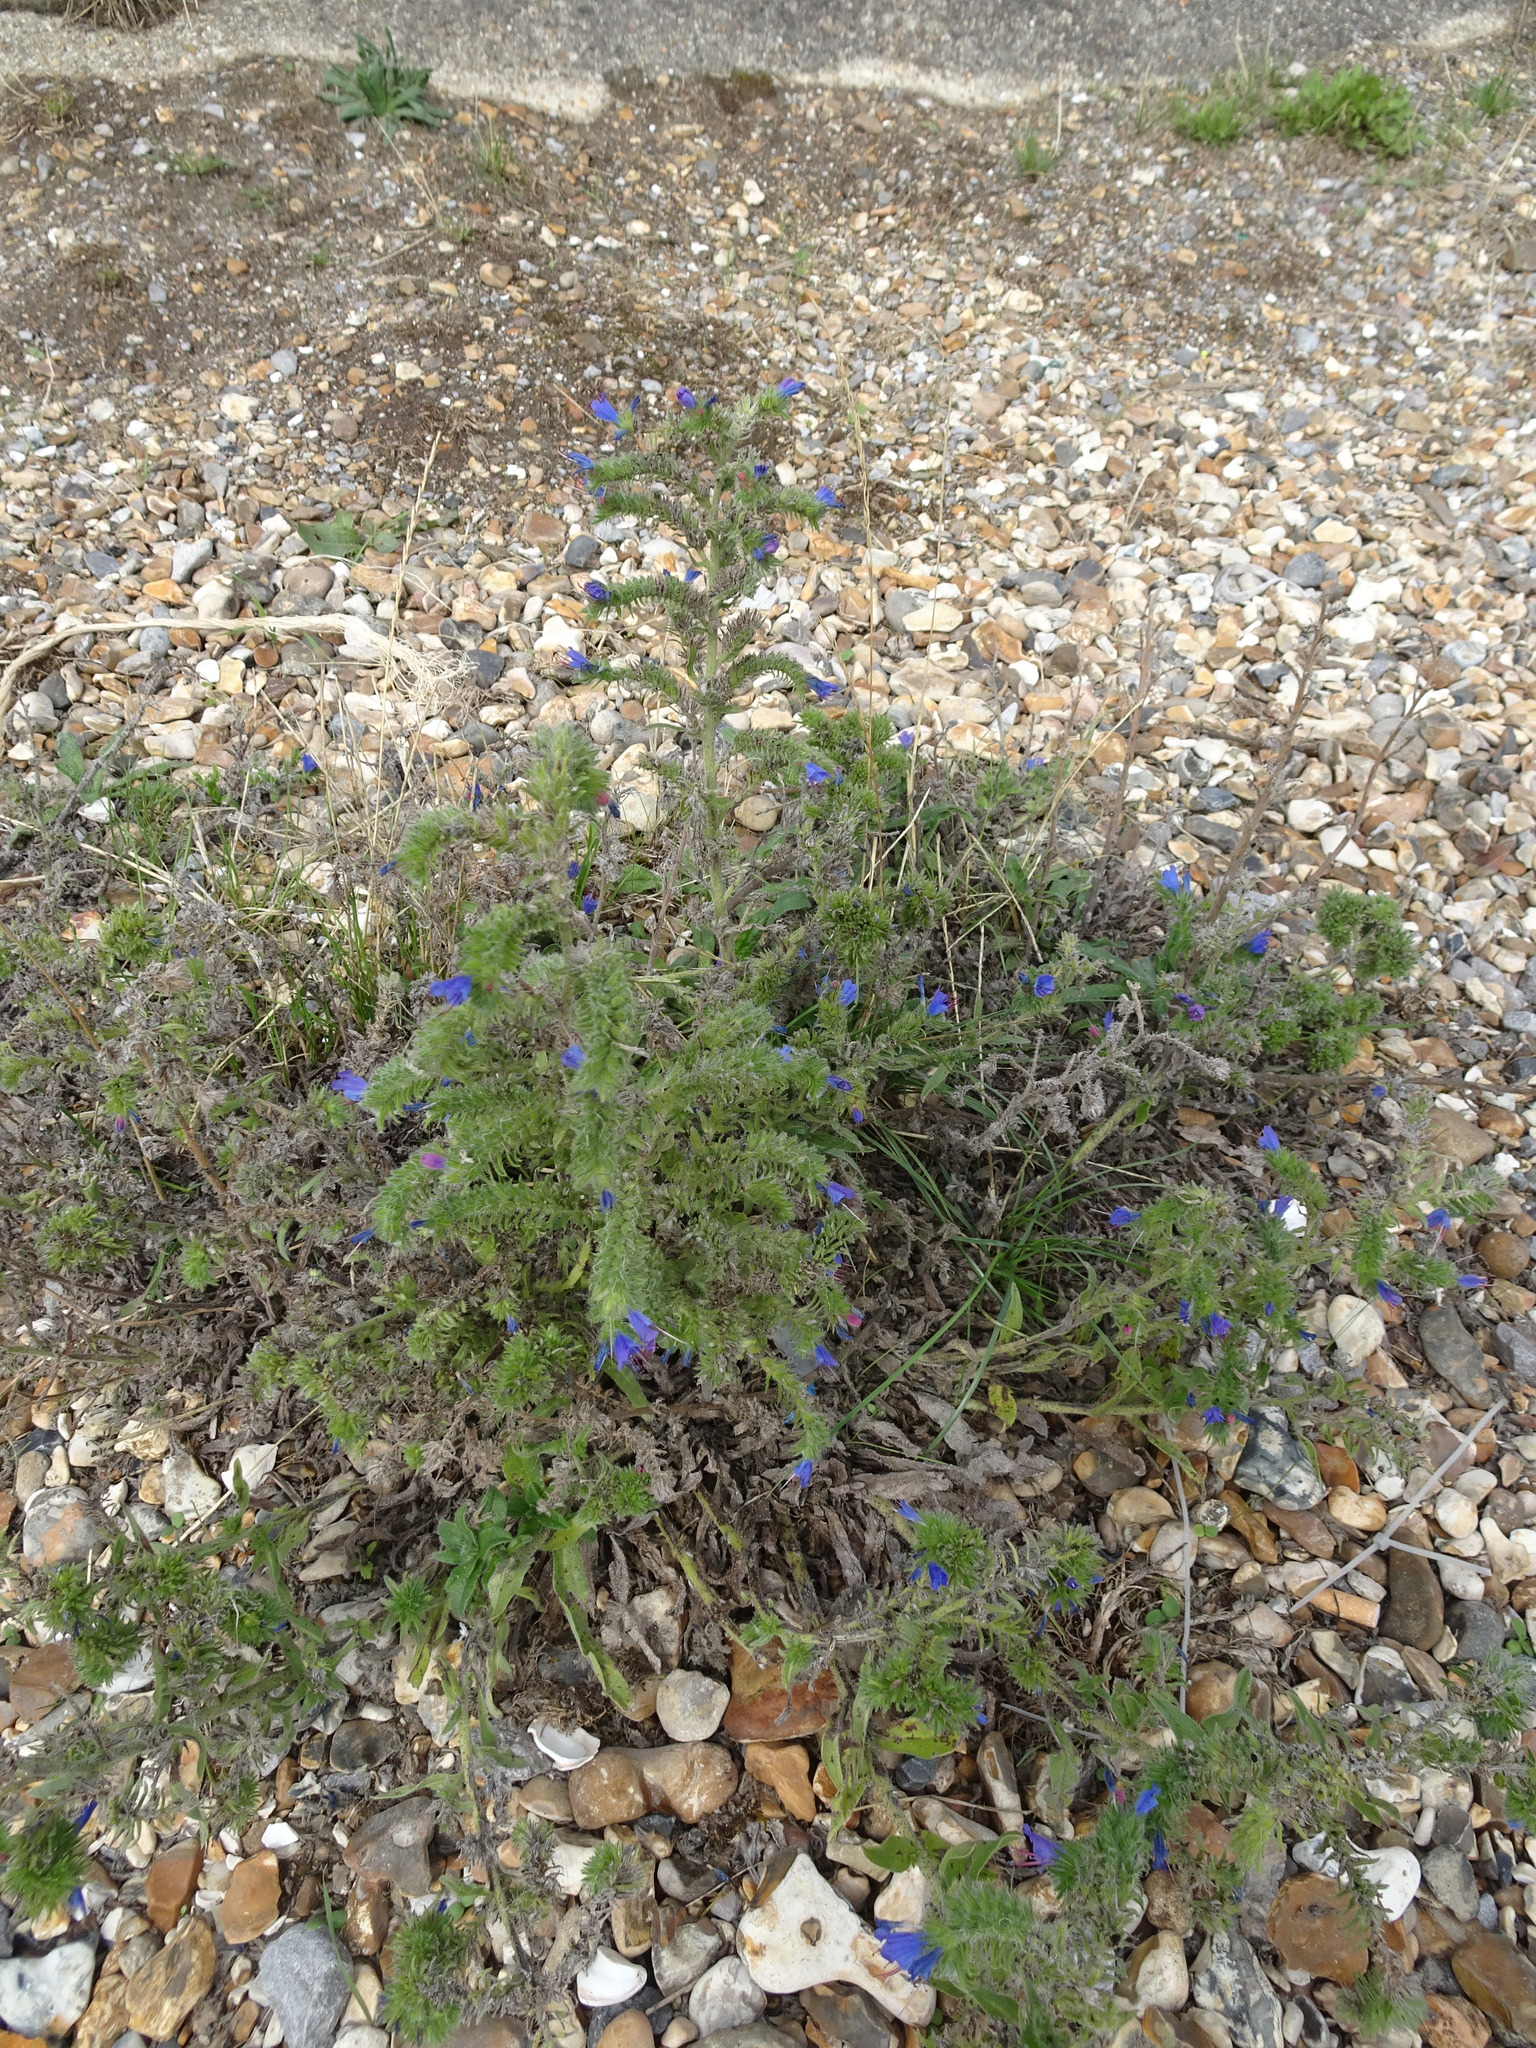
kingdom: Plantae
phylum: Tracheophyta
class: Magnoliopsida
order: Boraginales
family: Boraginaceae
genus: Echium
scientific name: Echium vulgare
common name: Common viper's bugloss
